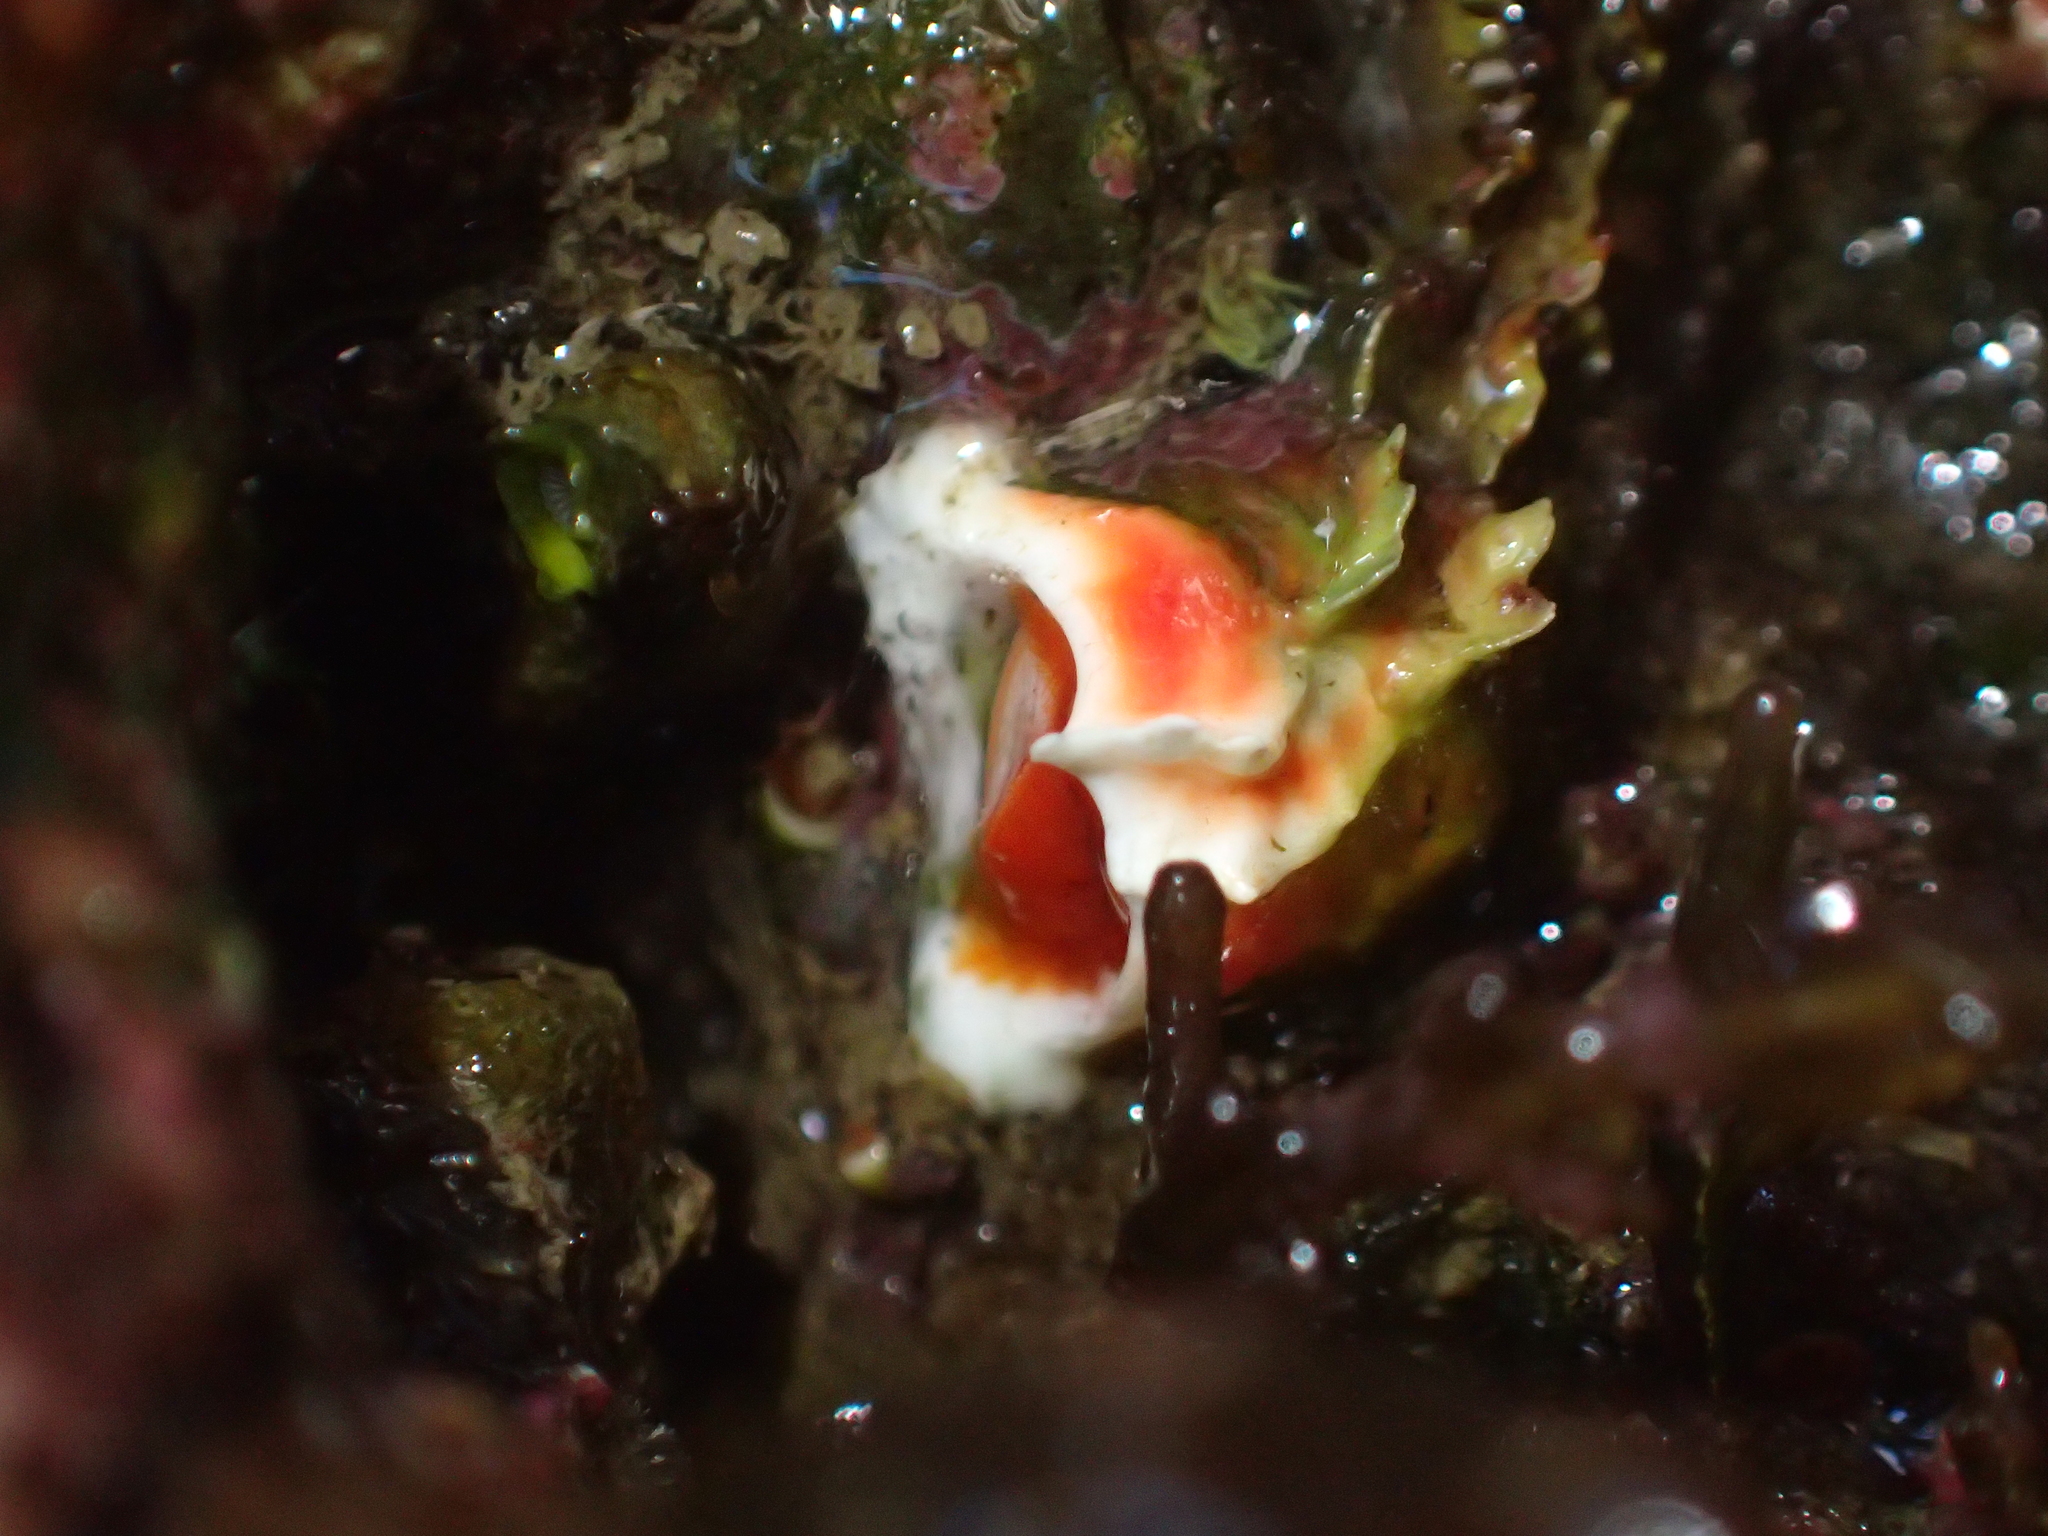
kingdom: Animalia
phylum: Annelida
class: Polychaeta
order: Sabellida
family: Serpulidae
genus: Galeolaria
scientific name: Galeolaria hystrix
